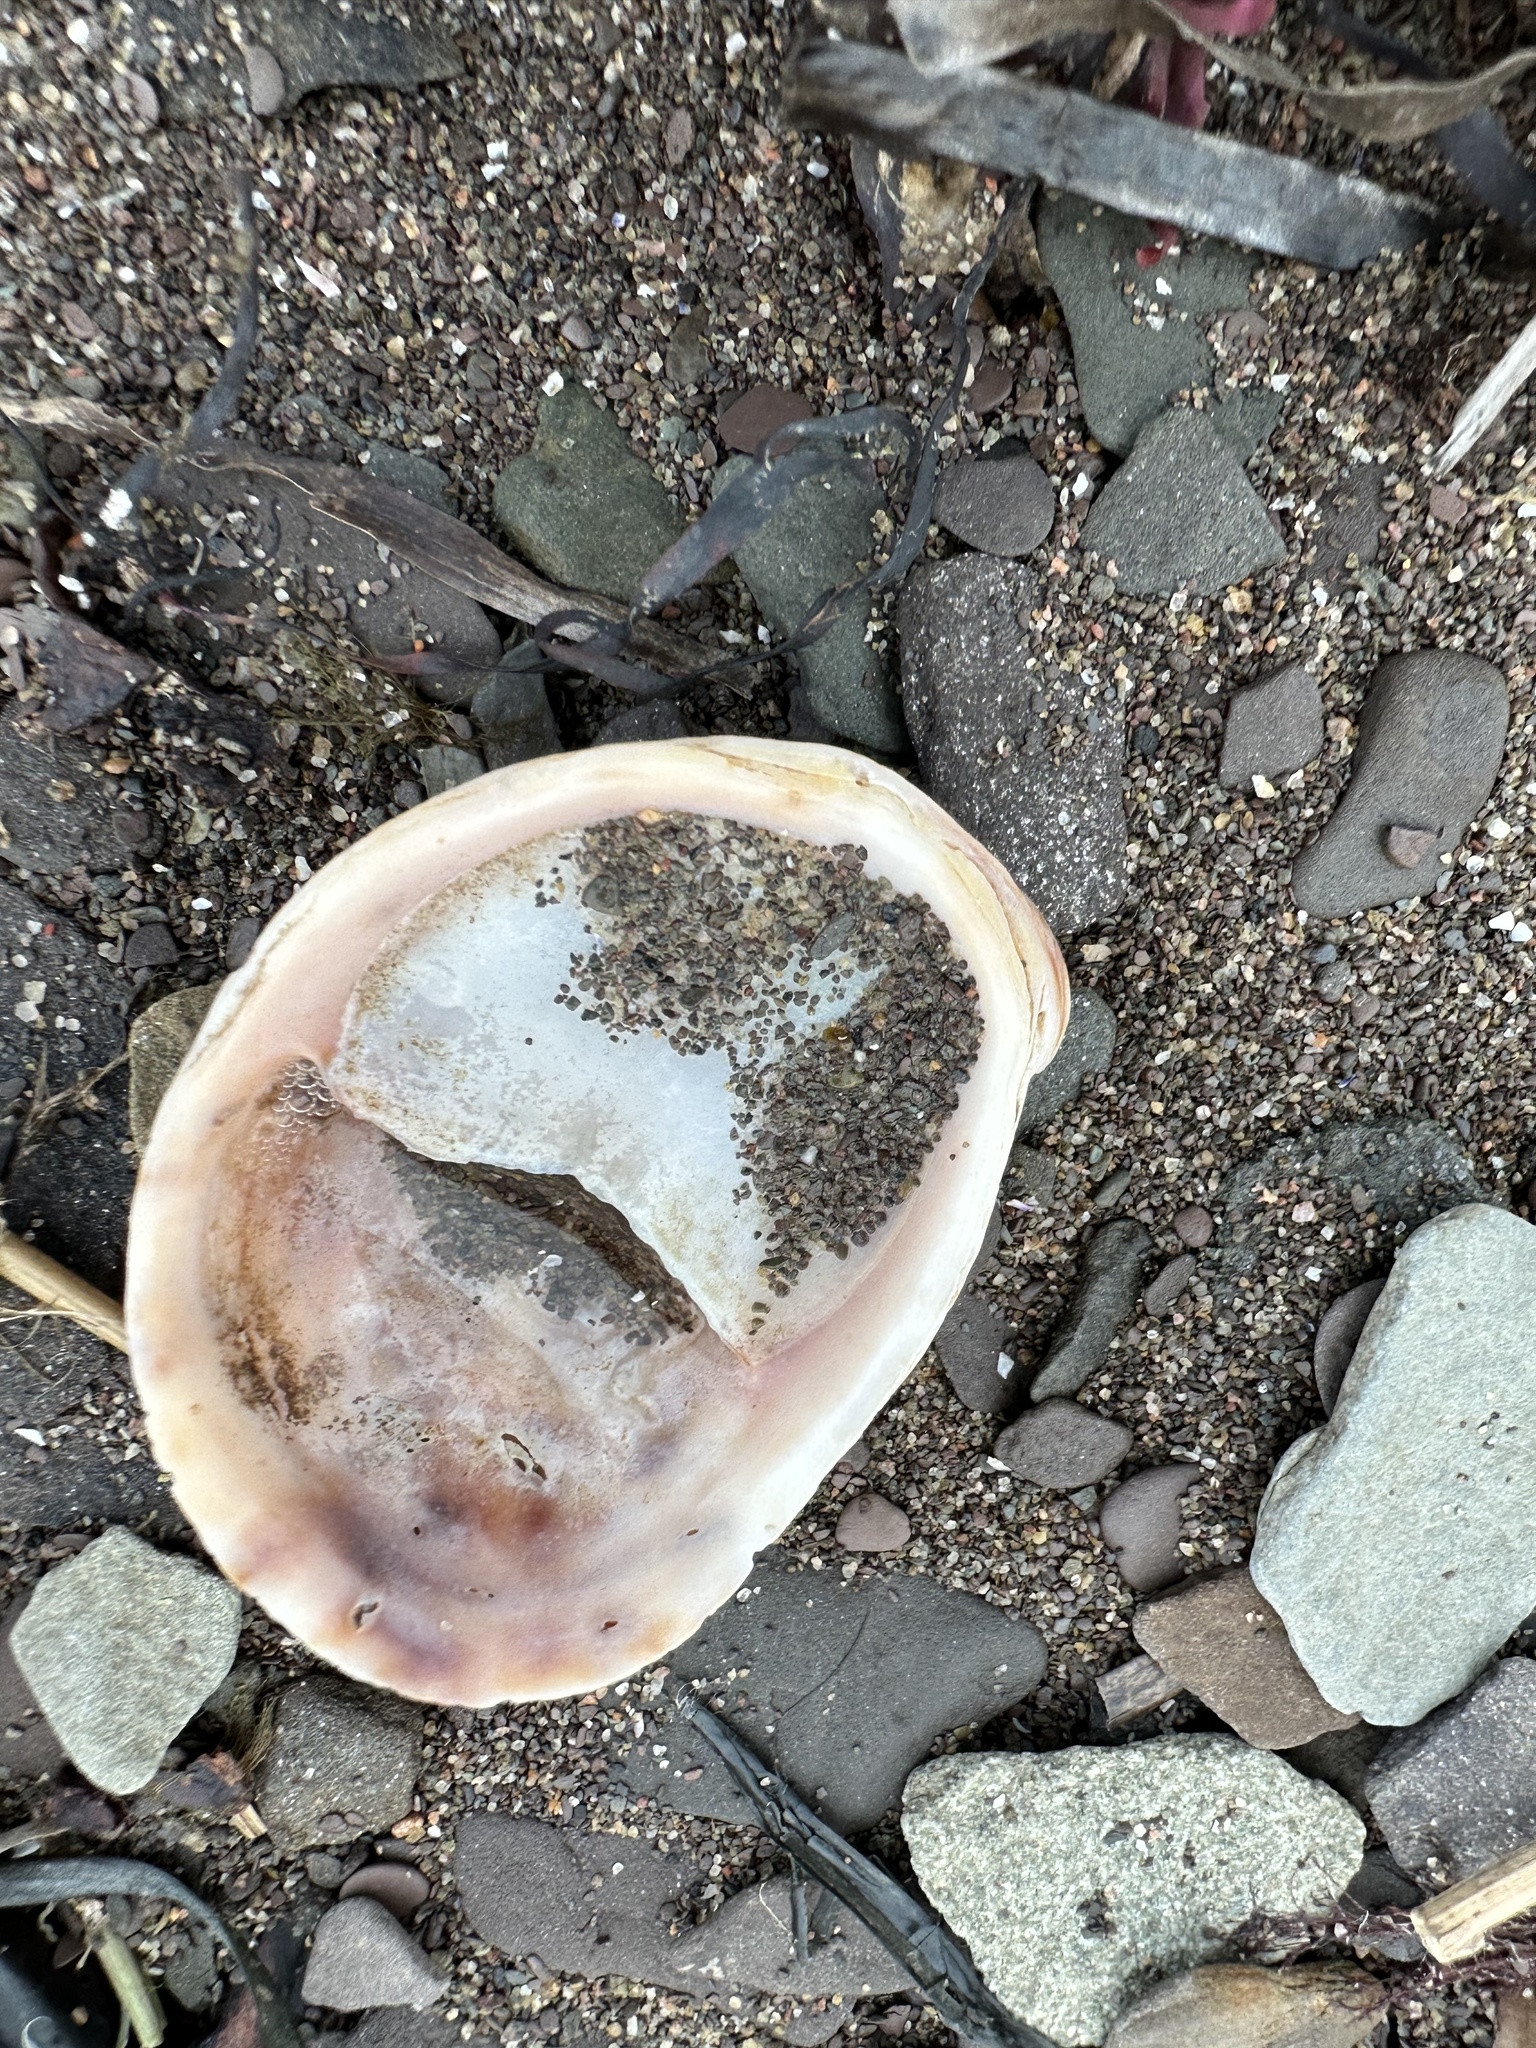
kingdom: Animalia
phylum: Mollusca
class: Gastropoda
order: Littorinimorpha
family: Calyptraeidae
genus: Crepidula
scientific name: Crepidula fornicata
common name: Slipper limpet
